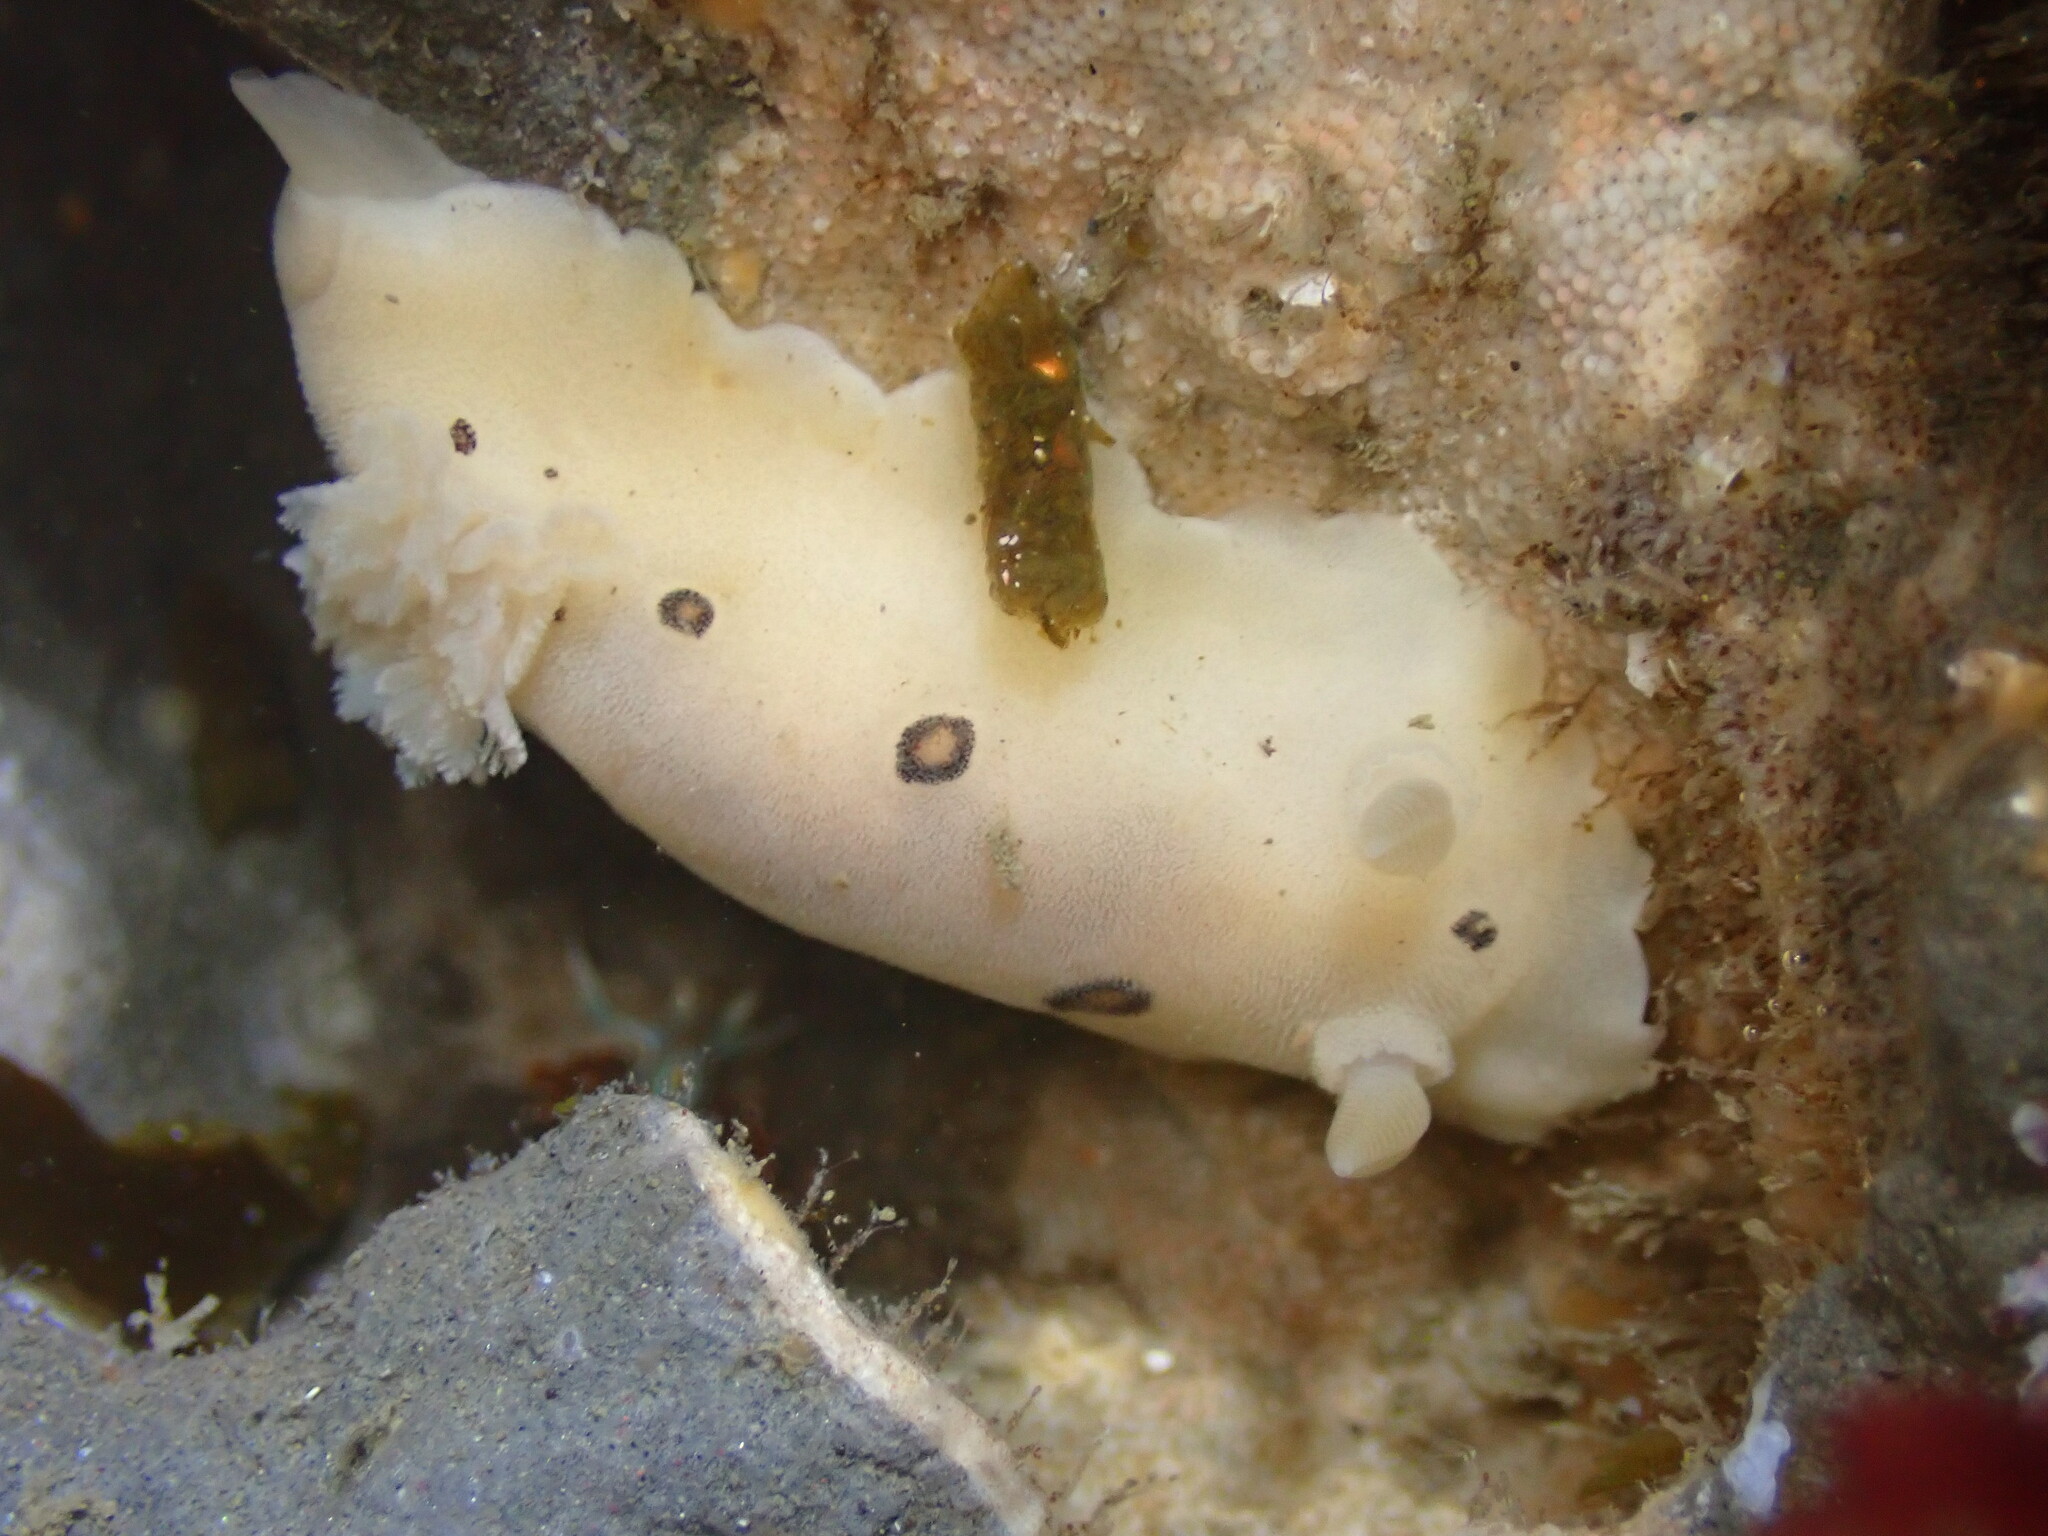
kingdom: Animalia
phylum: Mollusca
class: Gastropoda
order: Nudibranchia
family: Discodorididae
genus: Diaulula
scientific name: Diaulula sandiegensis
